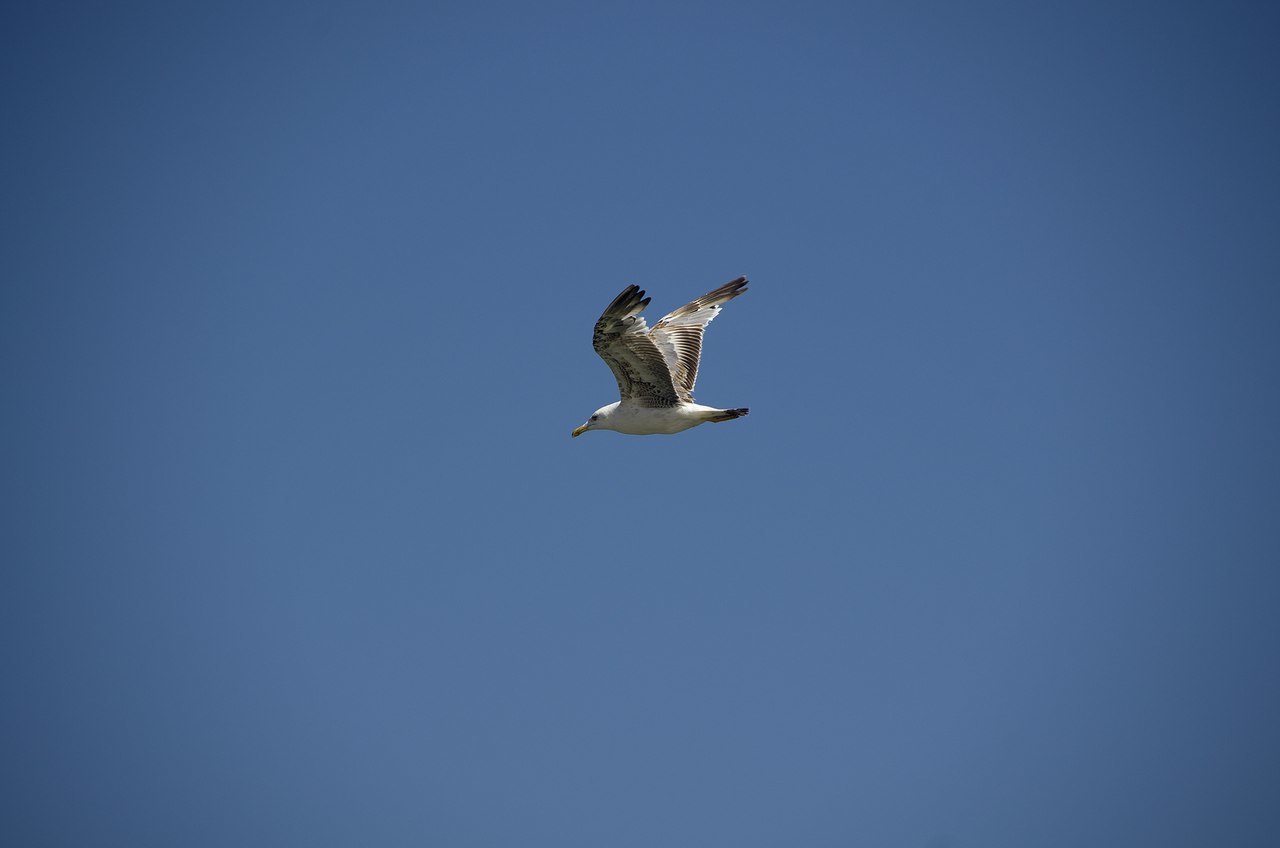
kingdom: Animalia
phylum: Chordata
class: Aves
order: Charadriiformes
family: Laridae
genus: Larus
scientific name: Larus cachinnans
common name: Caspian gull
